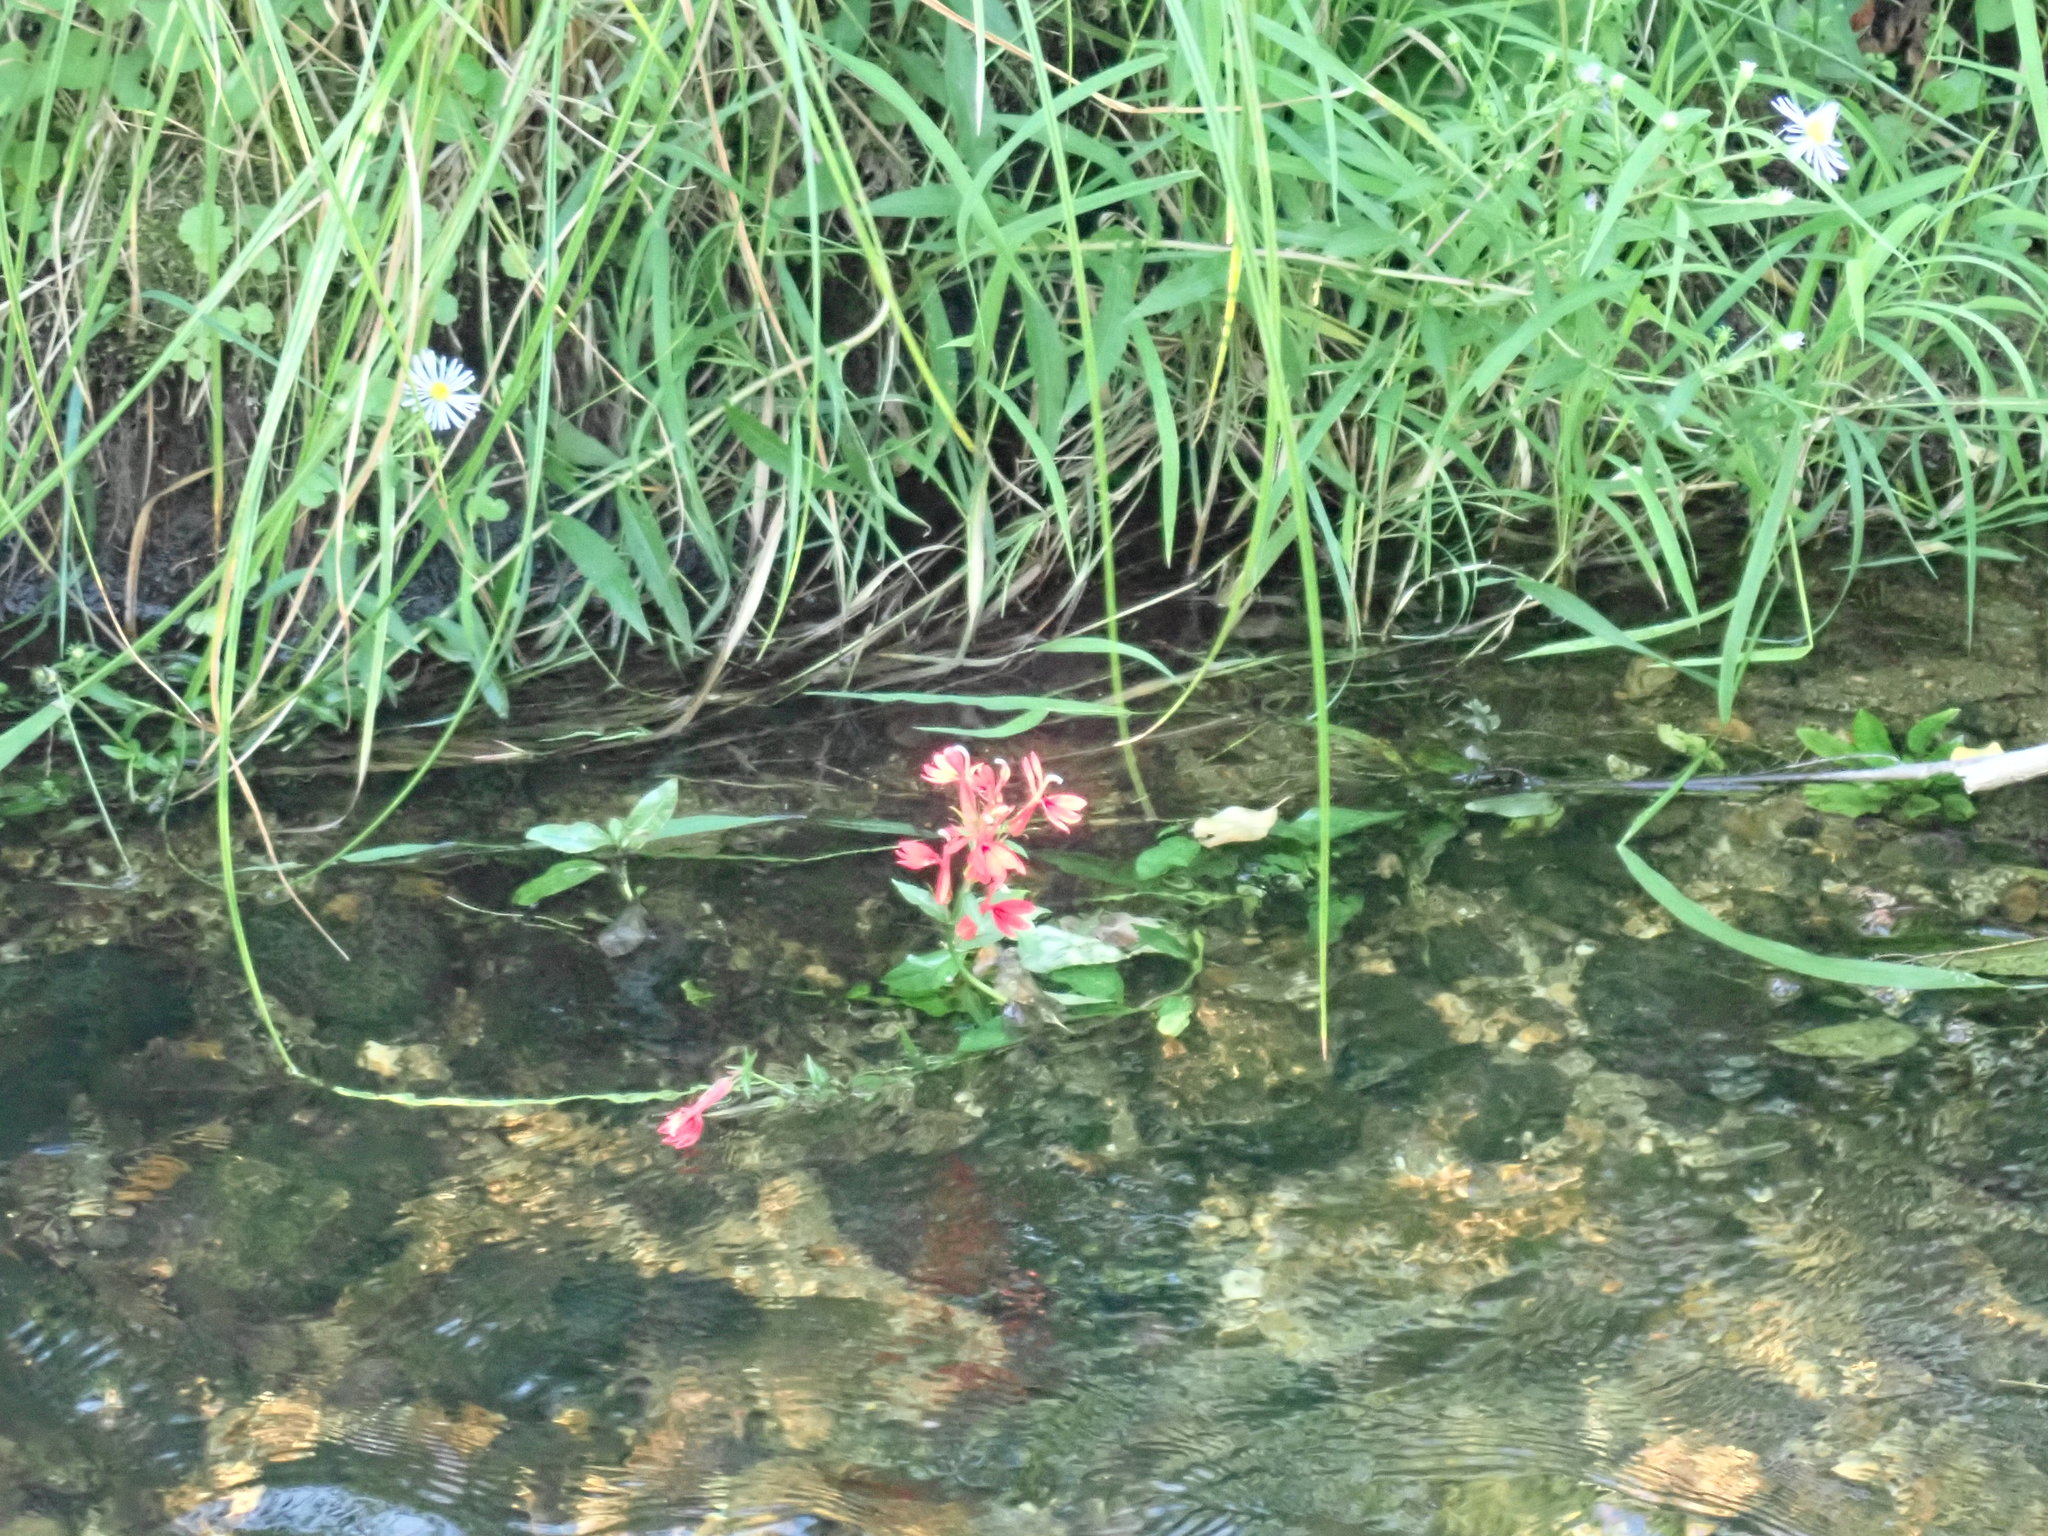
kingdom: Plantae
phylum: Tracheophyta
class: Magnoliopsida
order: Asterales
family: Campanulaceae
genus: Lobelia
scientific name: Lobelia cardinalis
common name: Cardinal flower
